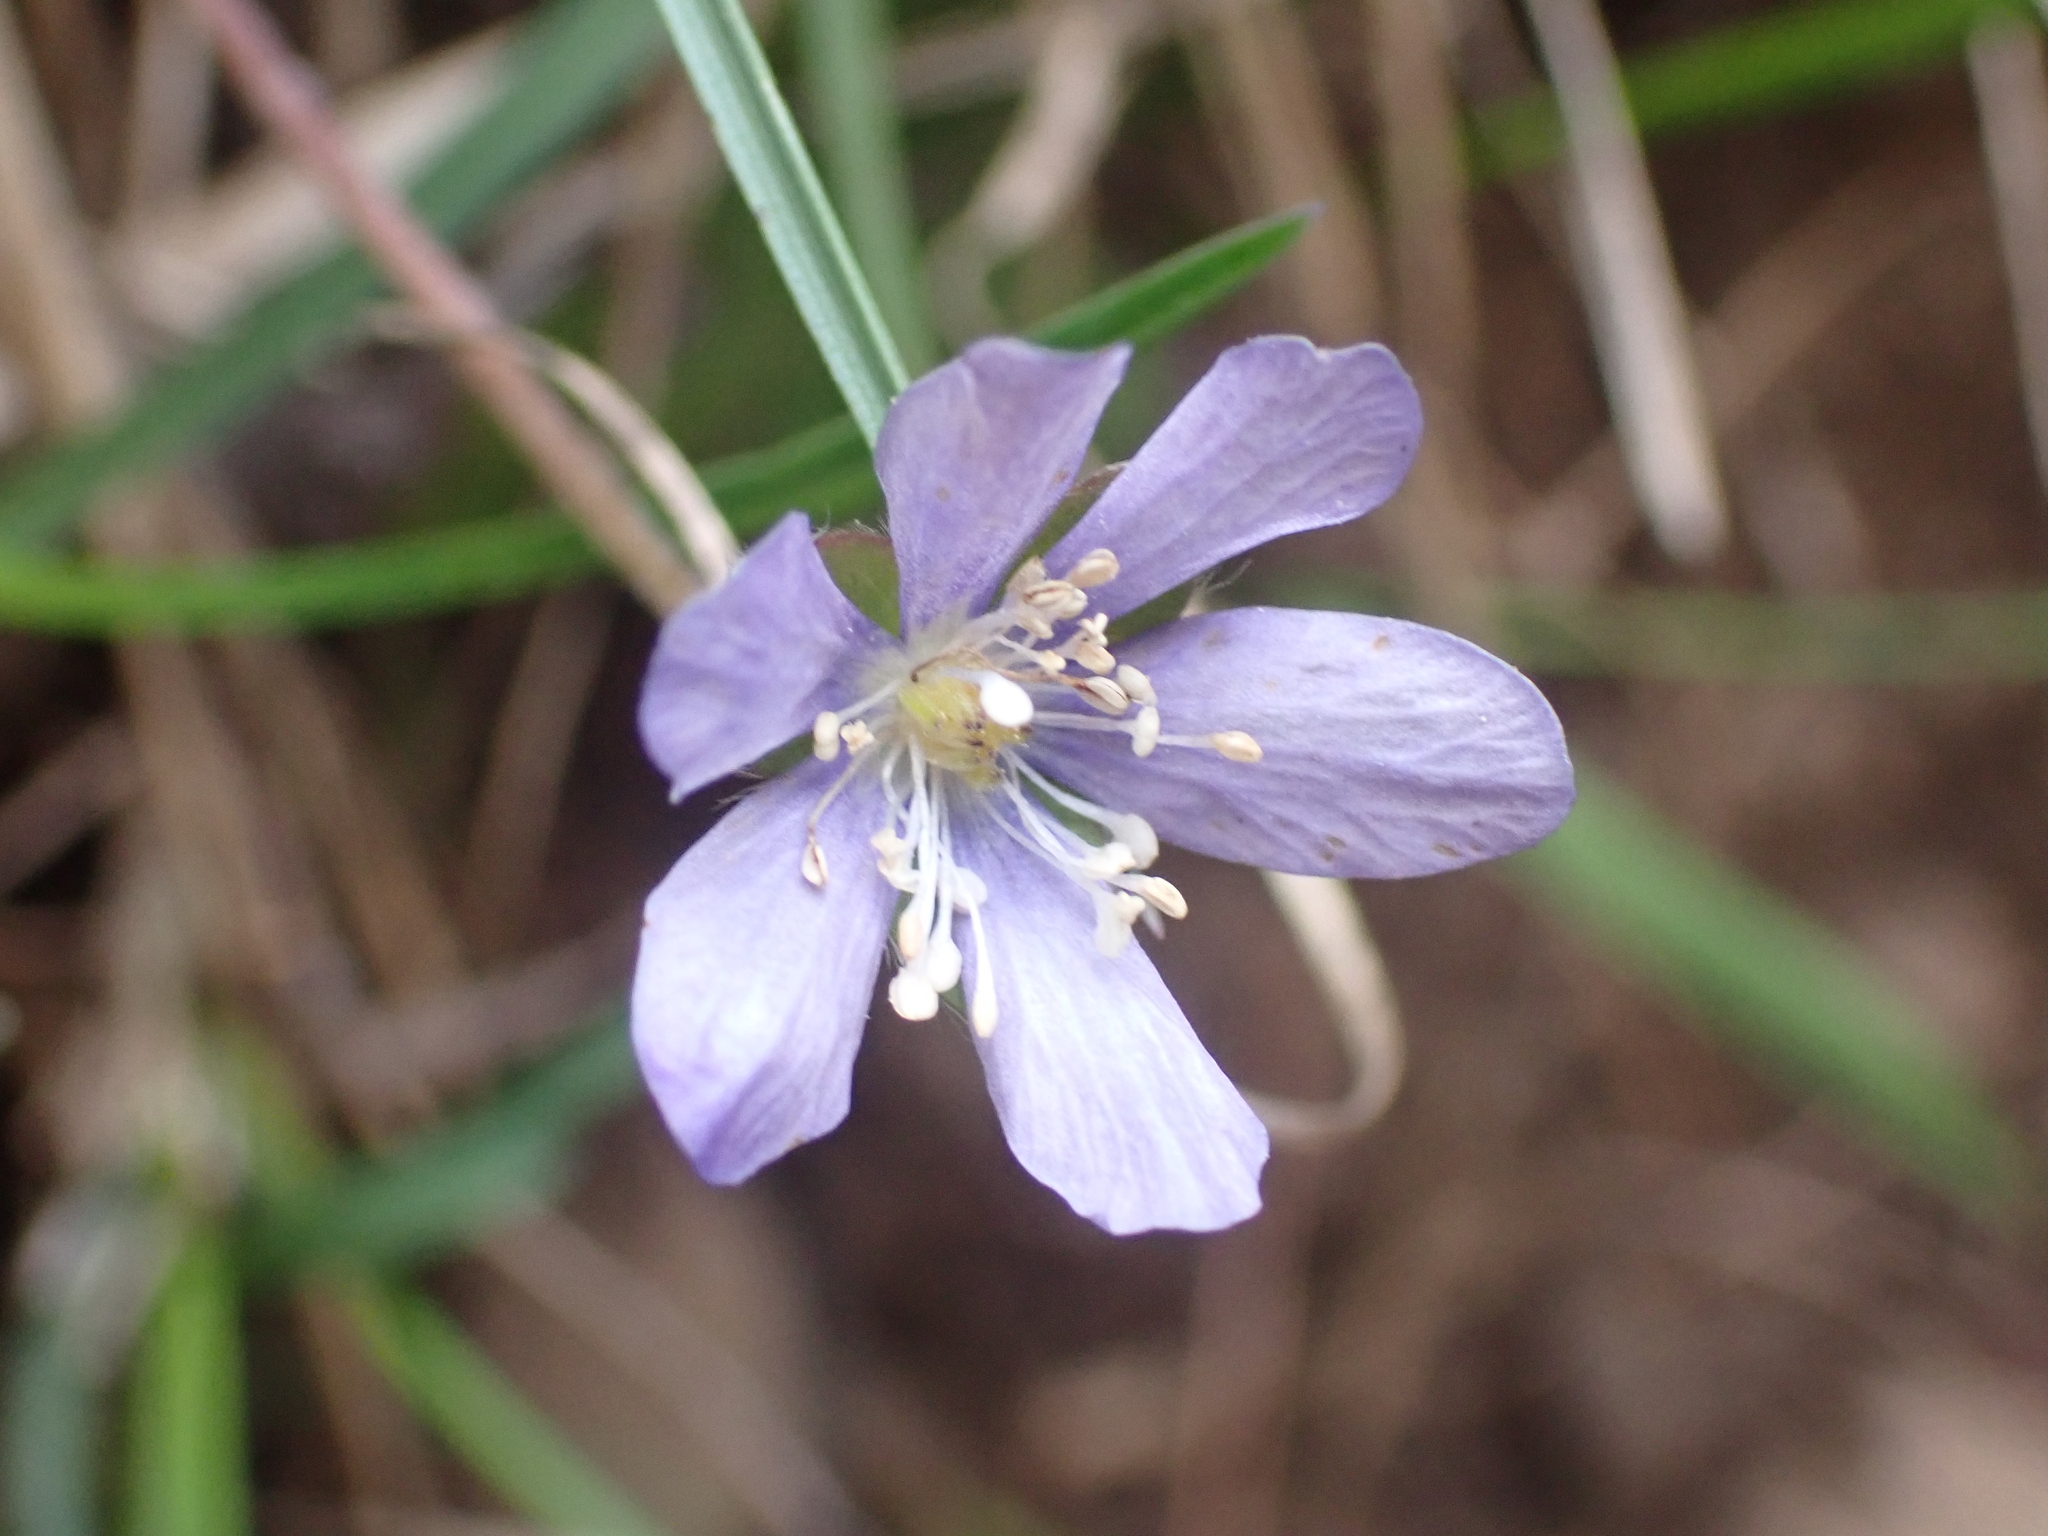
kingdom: Plantae
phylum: Tracheophyta
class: Magnoliopsida
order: Ranunculales
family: Ranunculaceae
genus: Hepatica
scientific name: Hepatica nobilis
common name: Liverleaf
